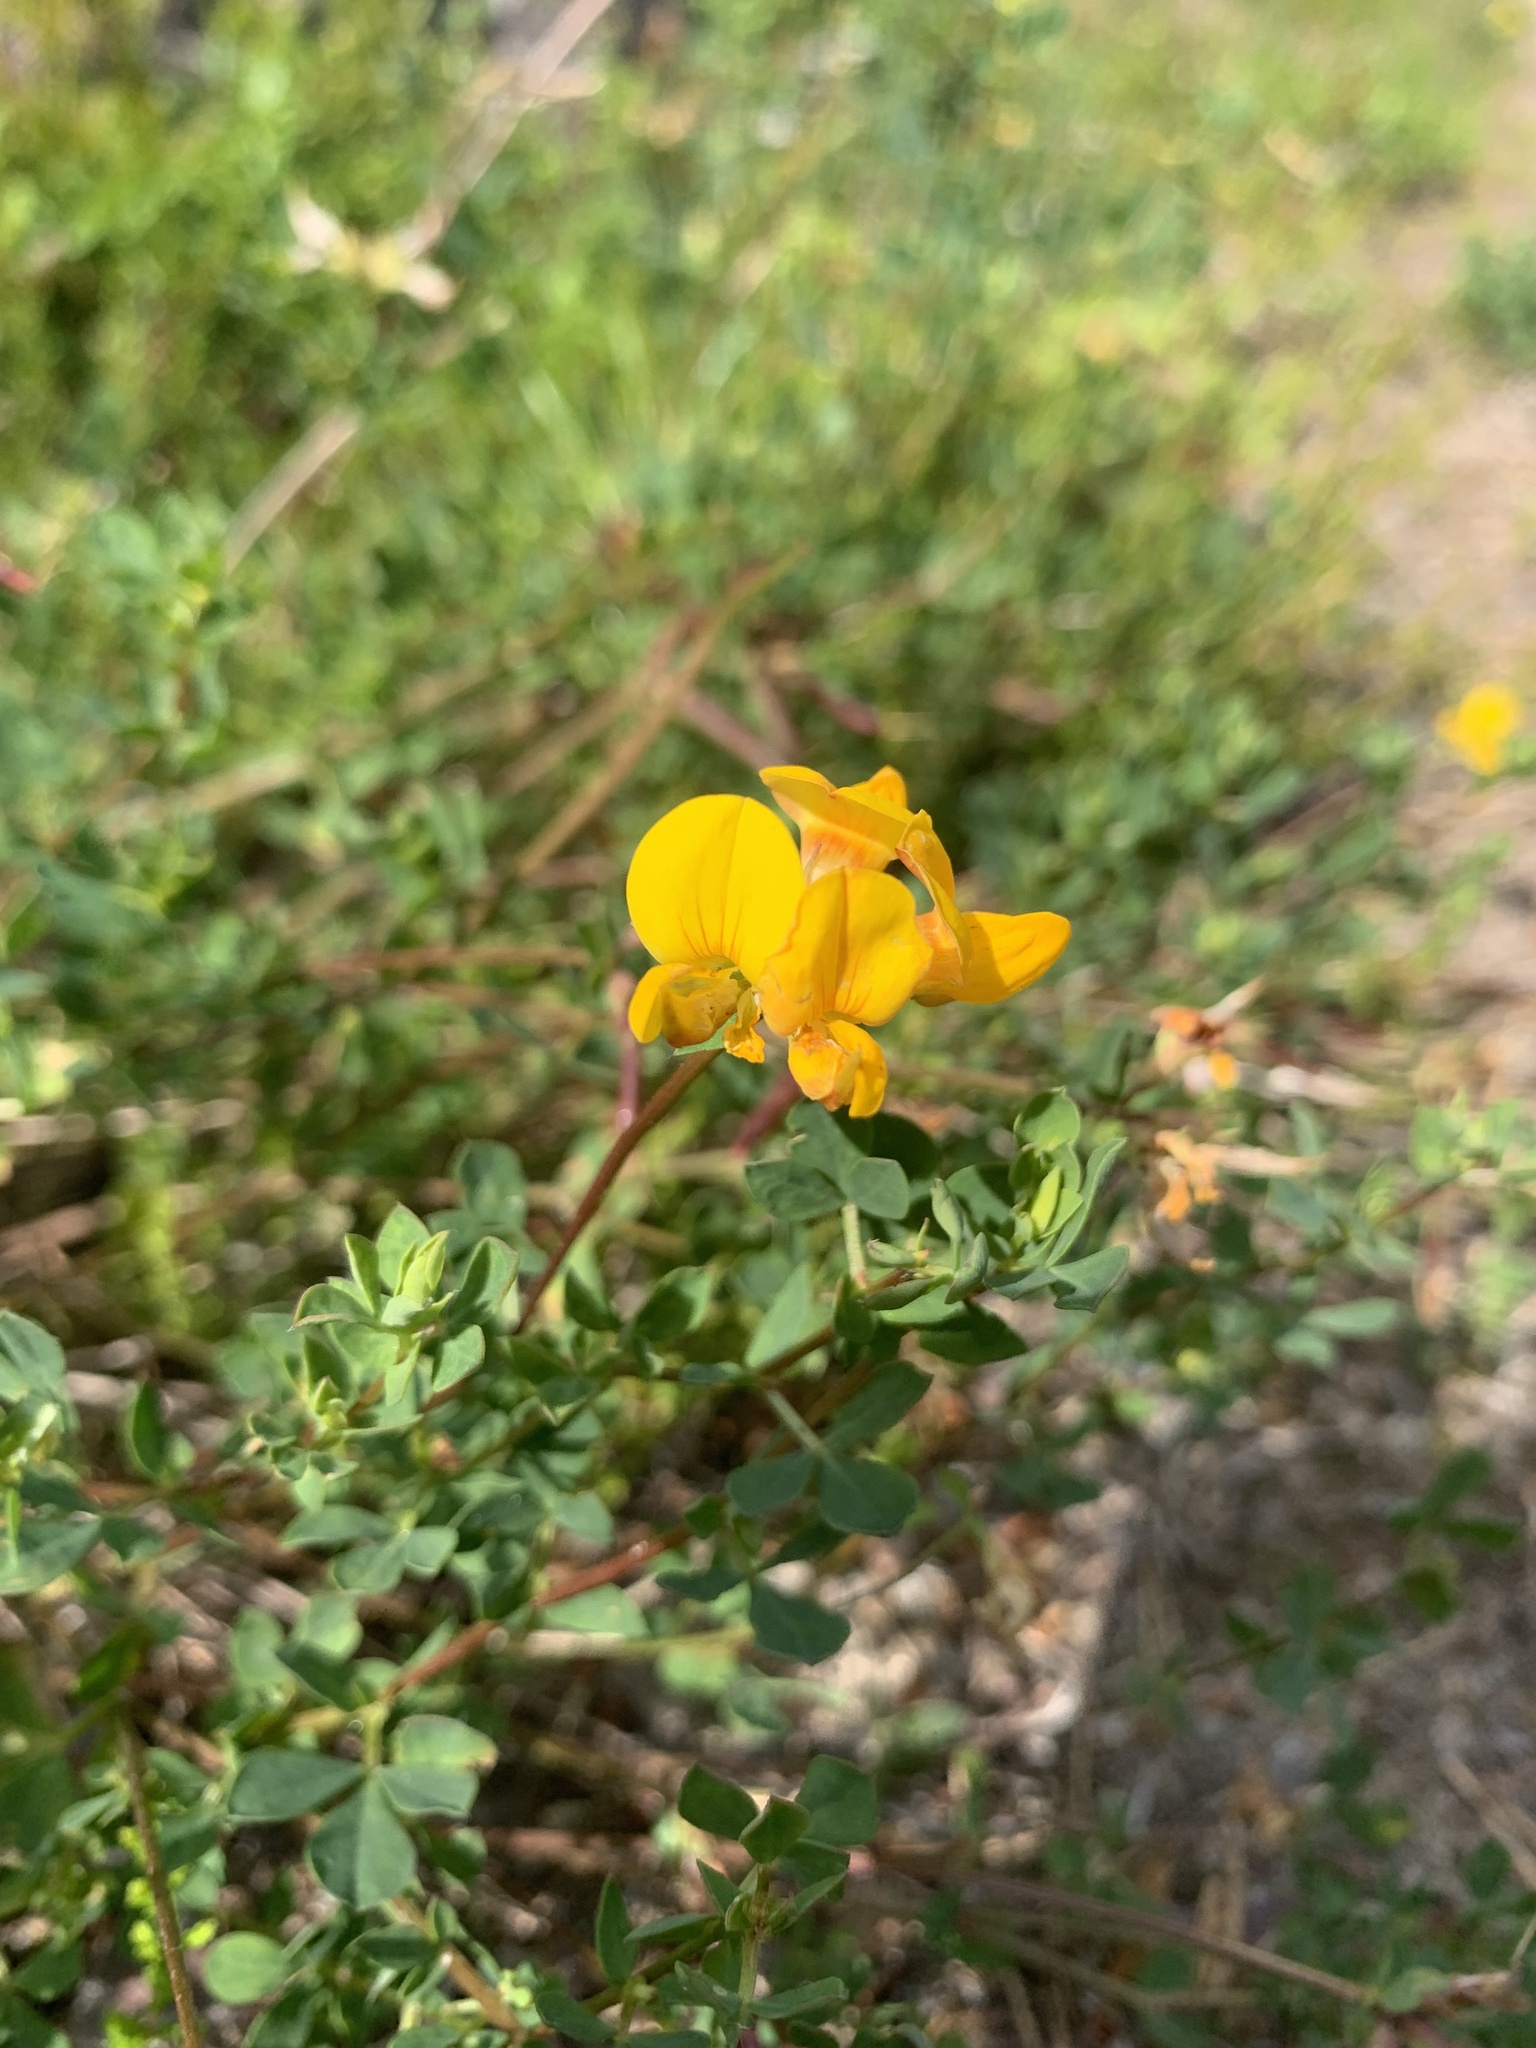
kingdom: Plantae
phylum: Tracheophyta
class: Magnoliopsida
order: Fabales
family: Fabaceae
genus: Lotus
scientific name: Lotus corniculatus
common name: Common bird's-foot-trefoil
